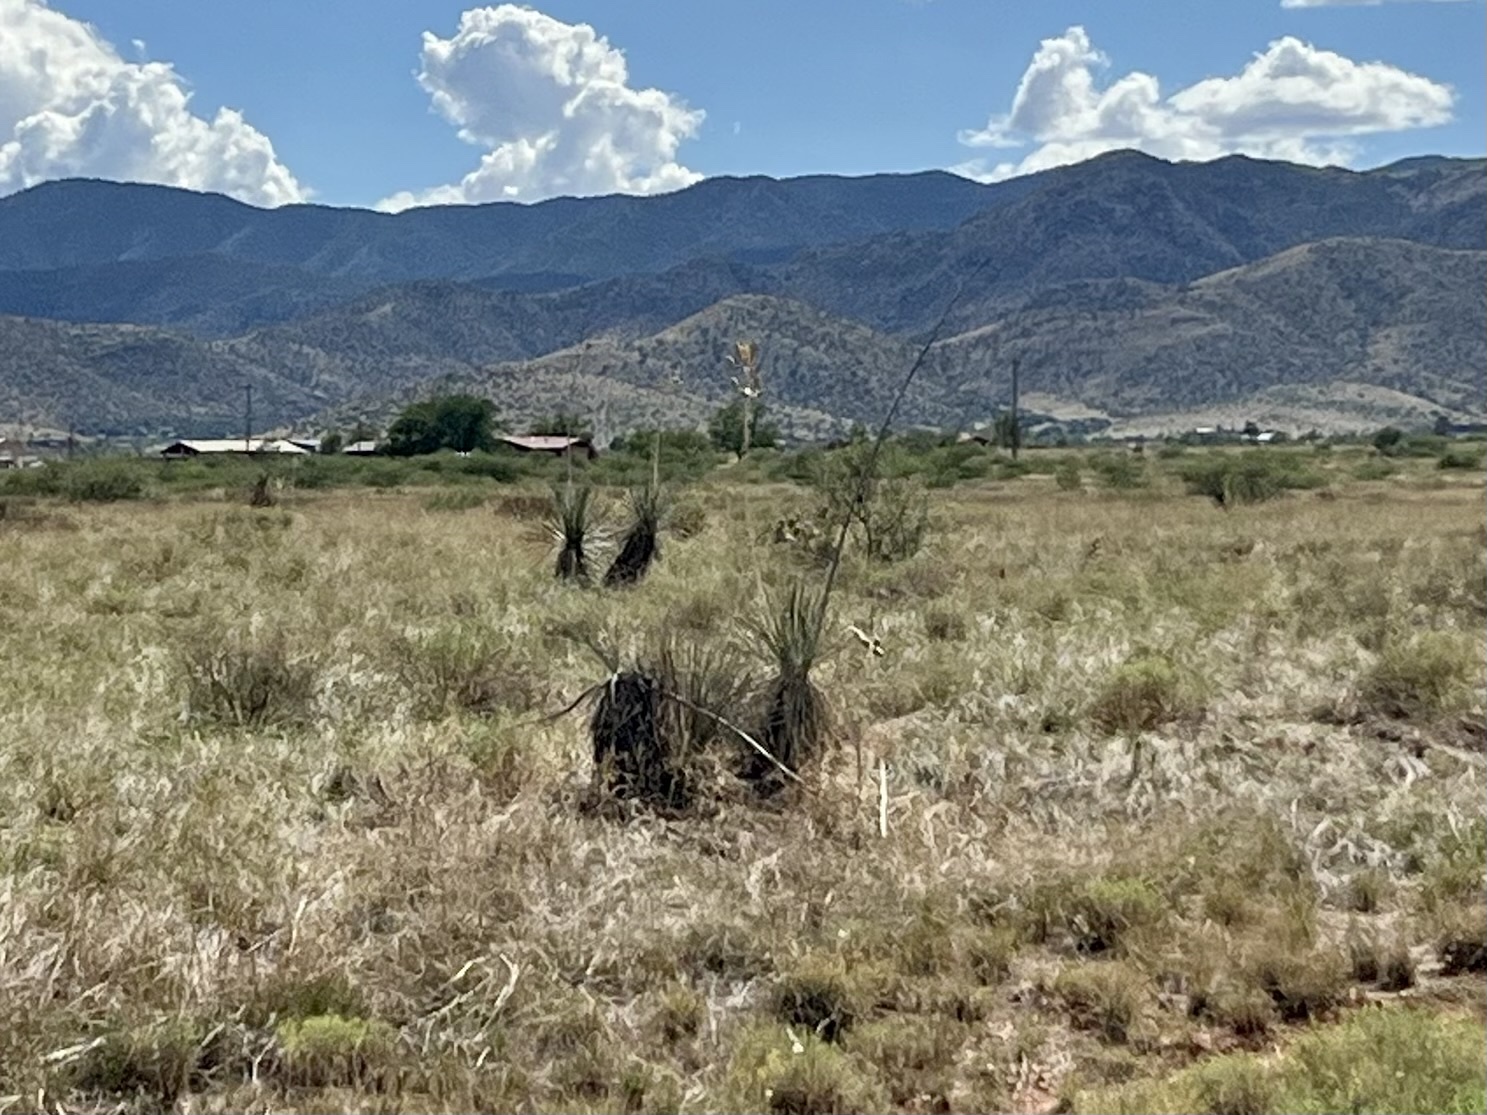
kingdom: Plantae
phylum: Tracheophyta
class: Liliopsida
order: Asparagales
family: Asparagaceae
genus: Yucca
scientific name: Yucca elata
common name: Palmella
